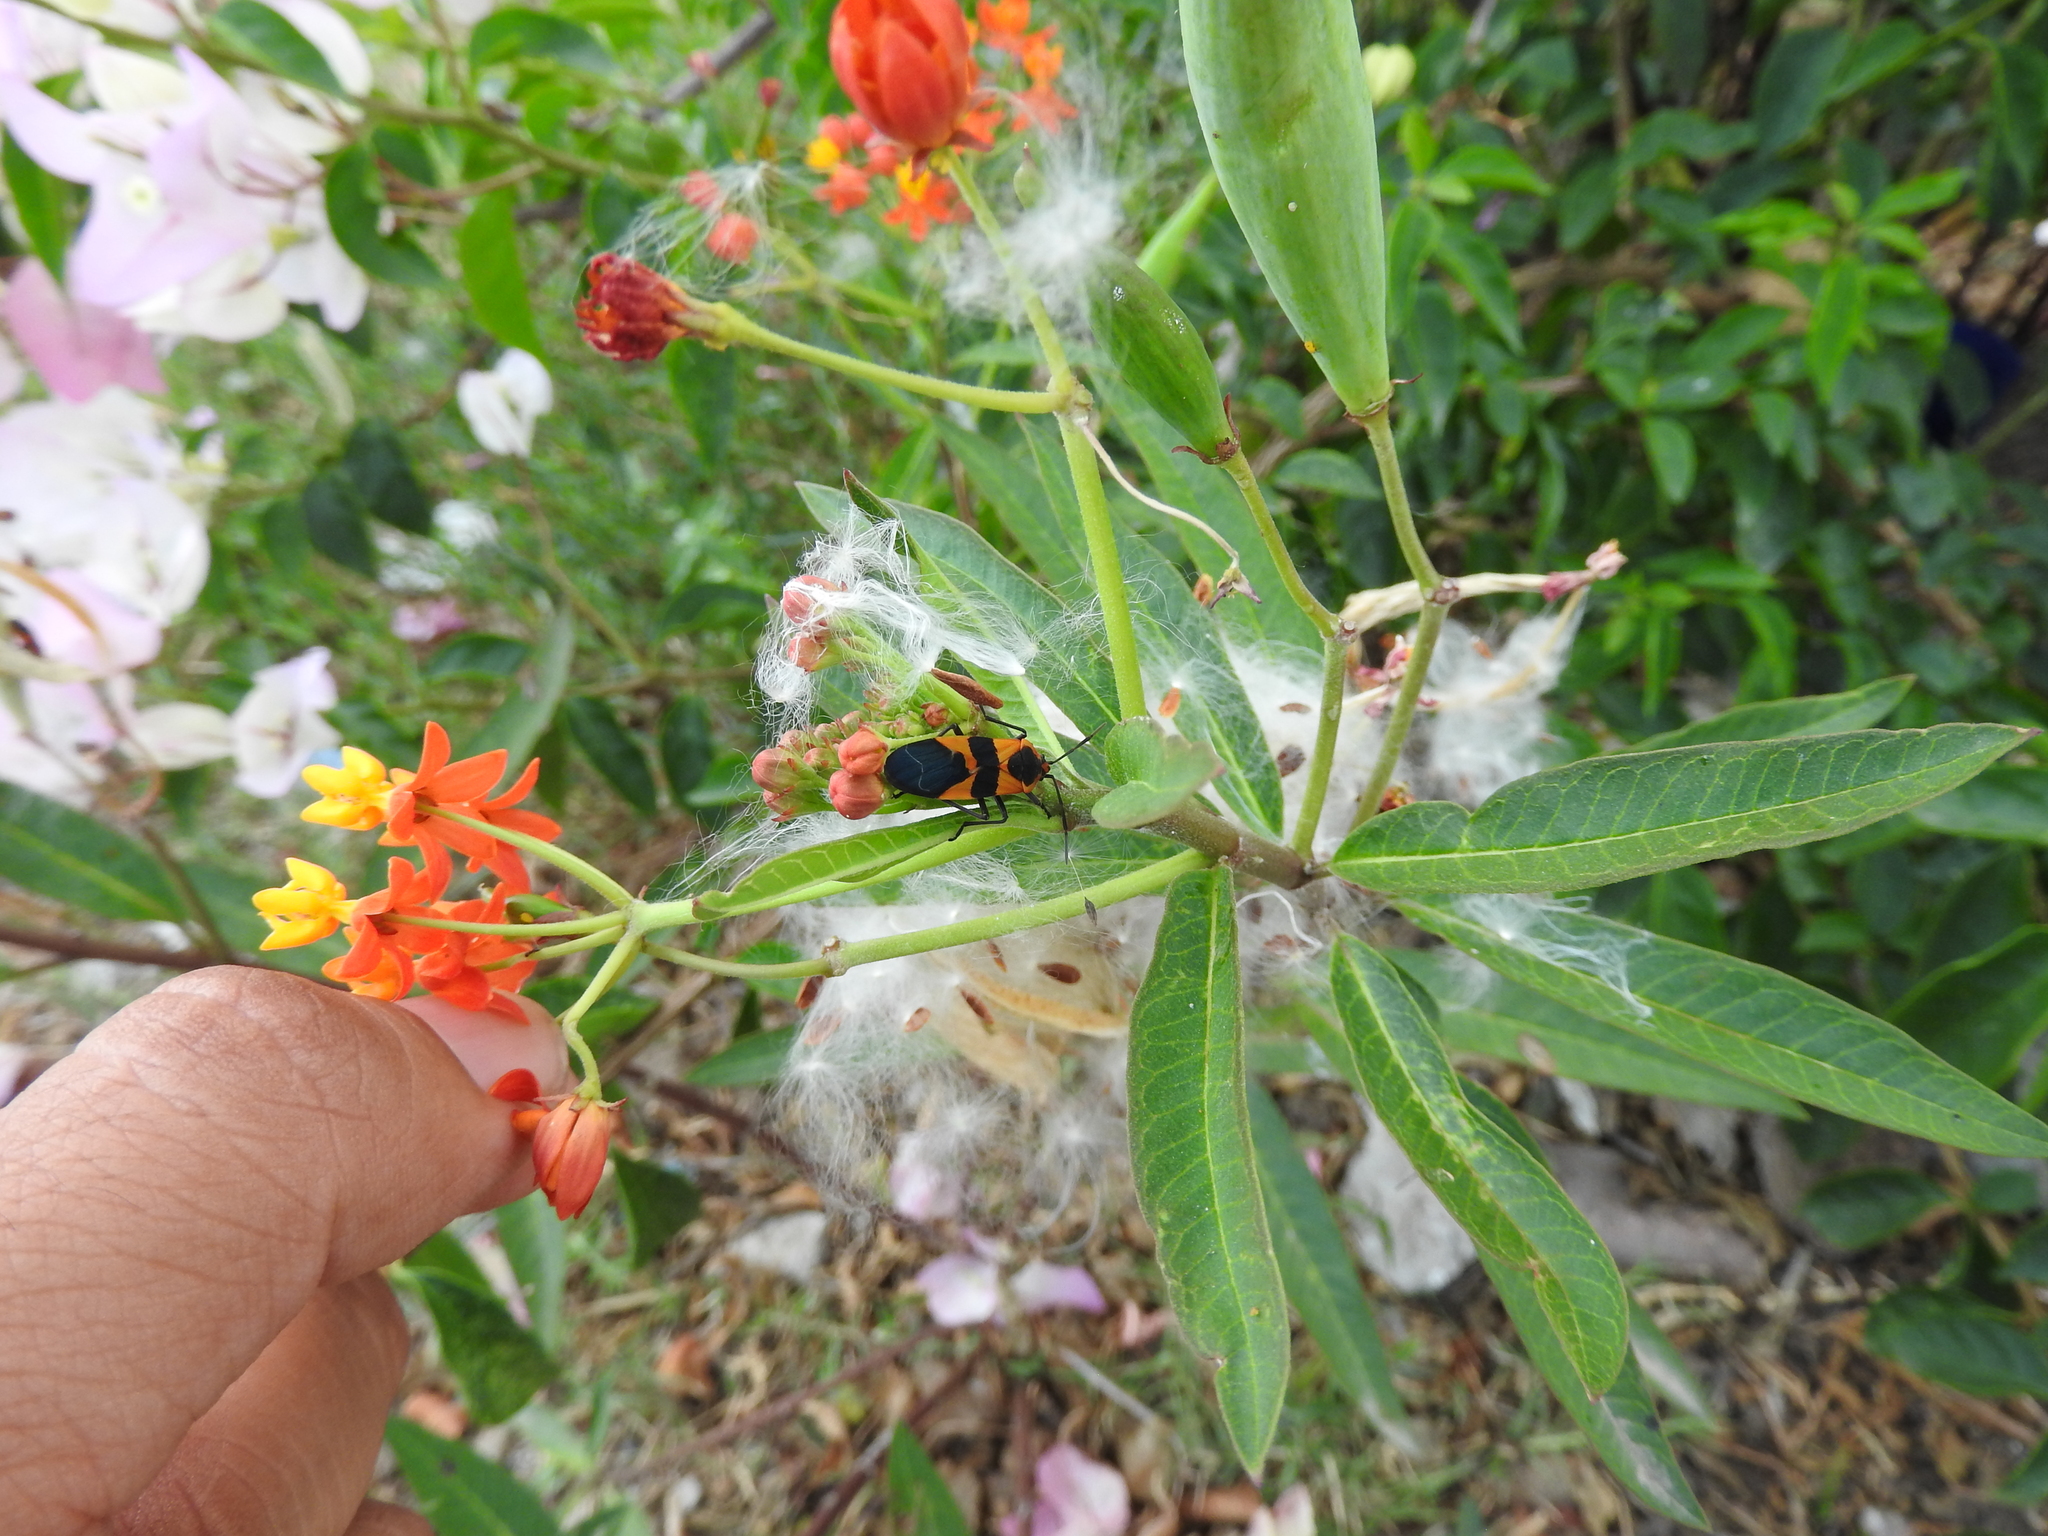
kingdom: Animalia
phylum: Arthropoda
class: Insecta
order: Hemiptera
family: Lygaeidae
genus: Oncopeltus
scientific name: Oncopeltus fasciatus
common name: Large milkweed bug
